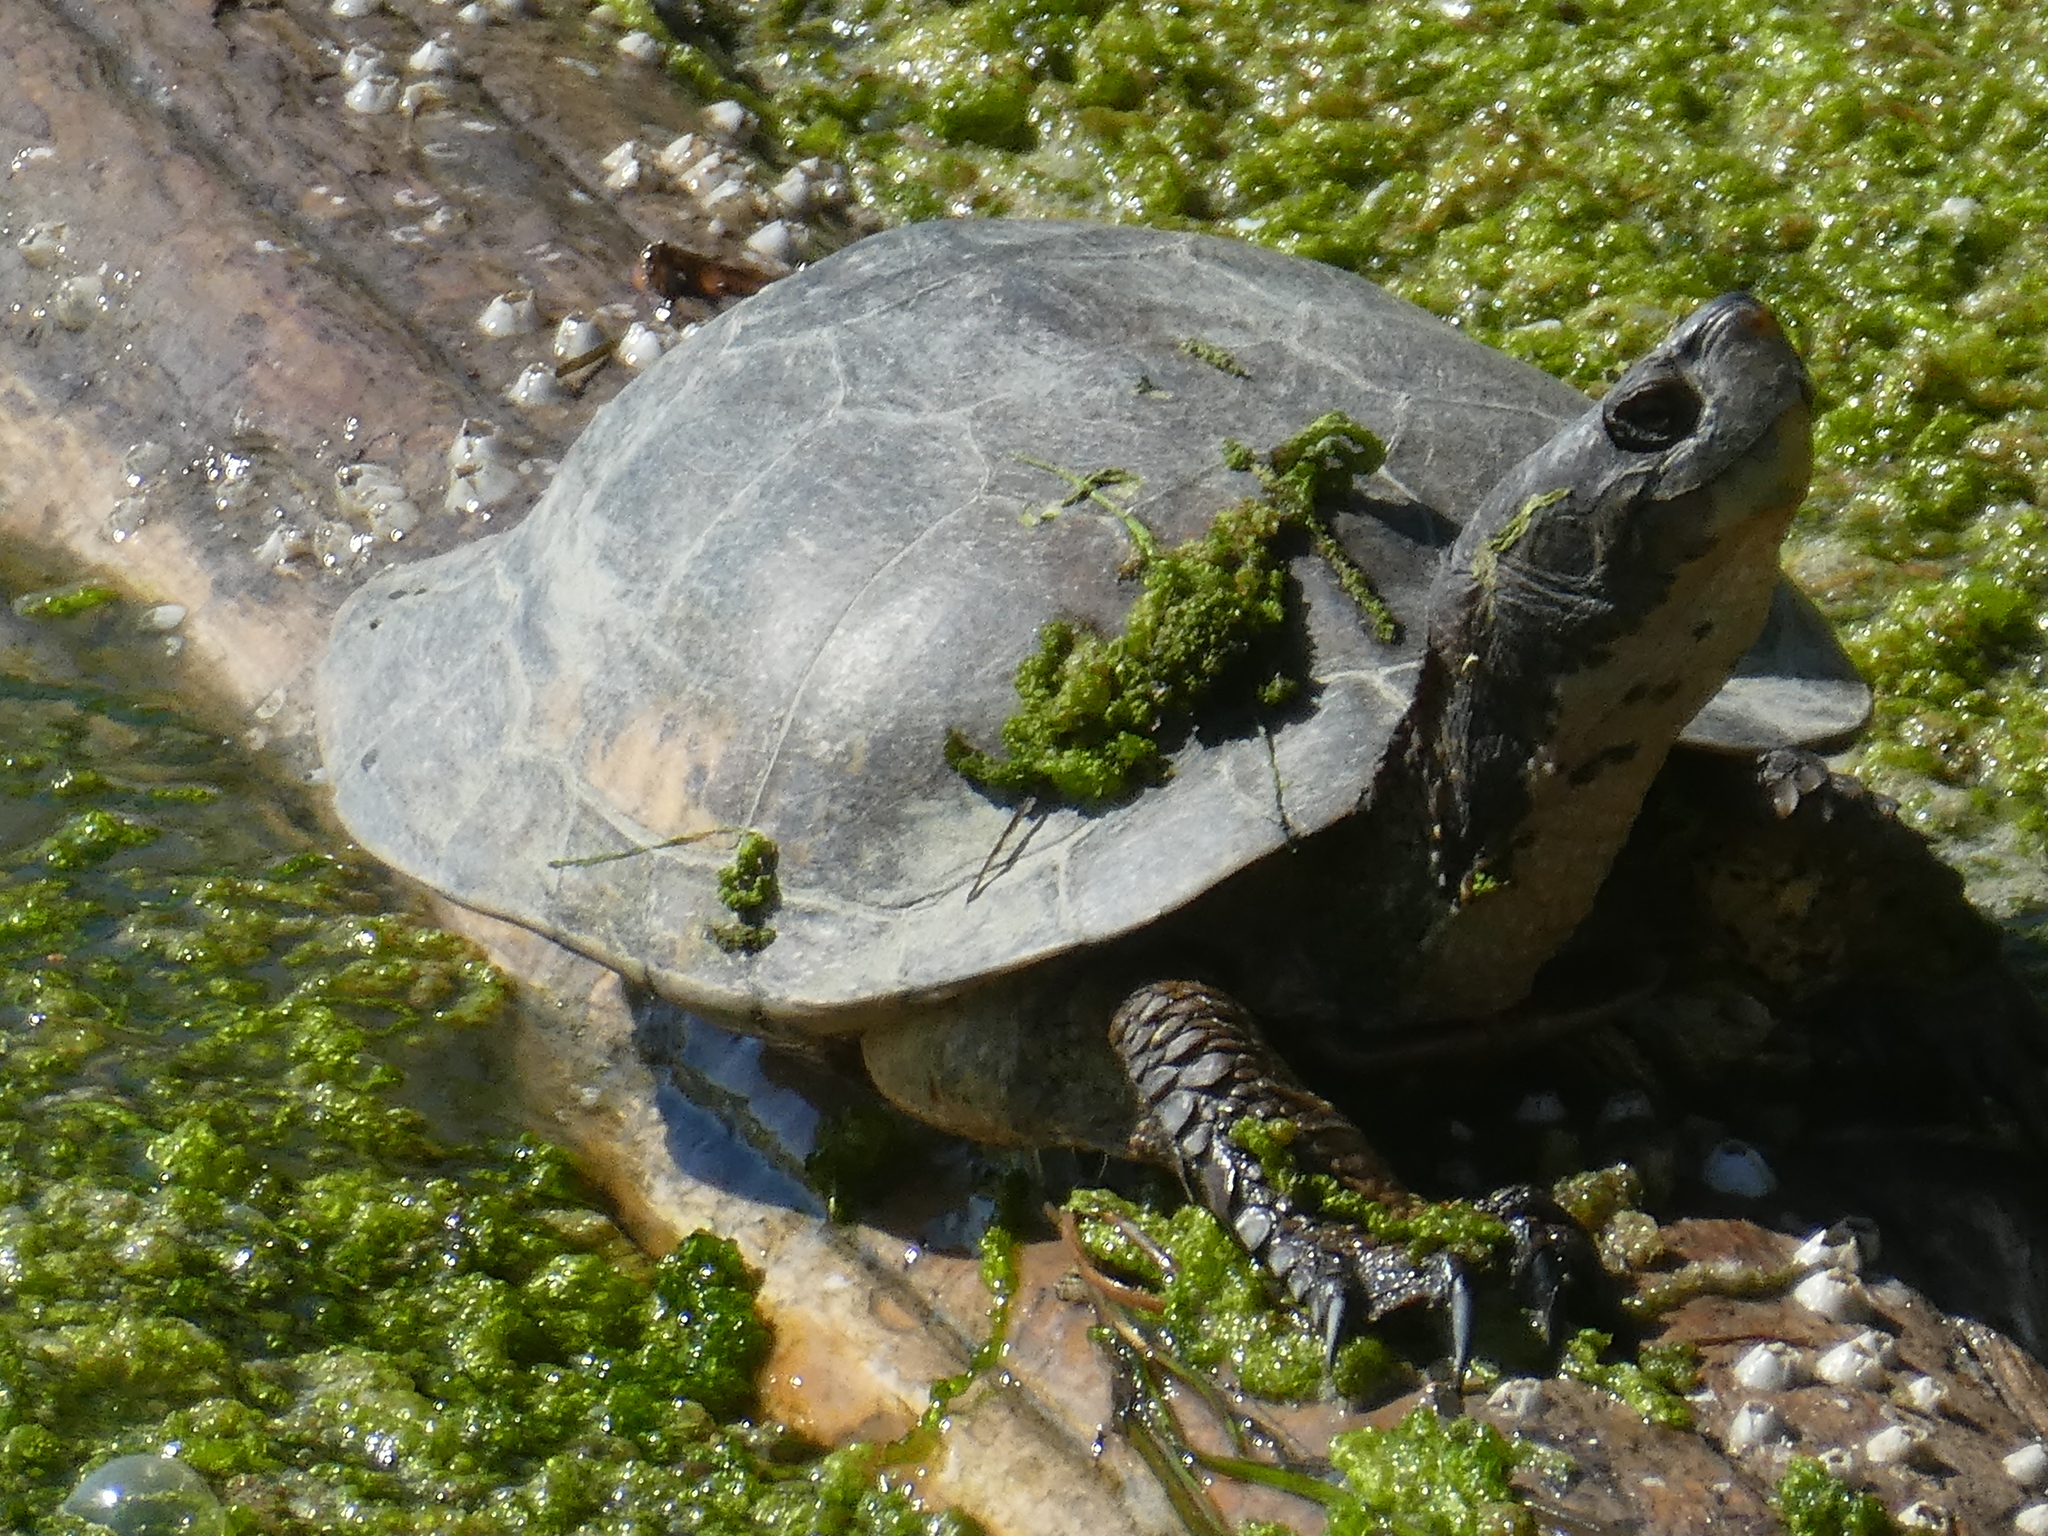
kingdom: Animalia
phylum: Chordata
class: Testudines
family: Emydidae
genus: Actinemys
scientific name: Actinemys marmorata
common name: Western pond turtle
